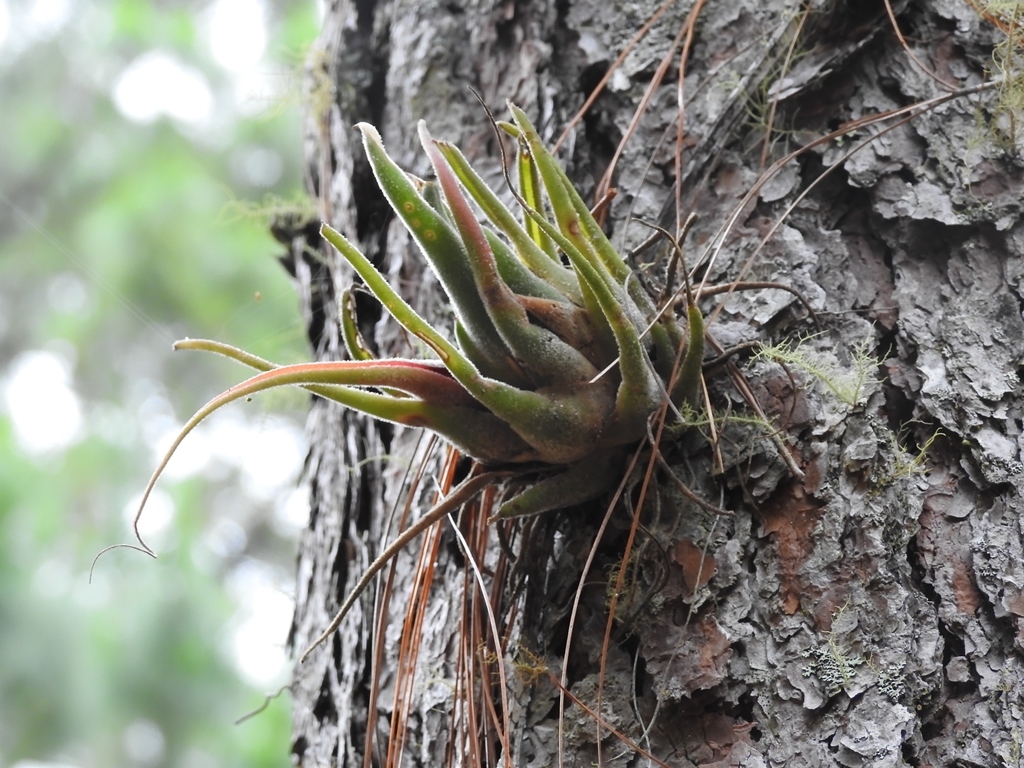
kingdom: Plantae
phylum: Tracheophyta
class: Liliopsida
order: Poales
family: Bromeliaceae
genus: Tillandsia
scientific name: Tillandsia seleriana
